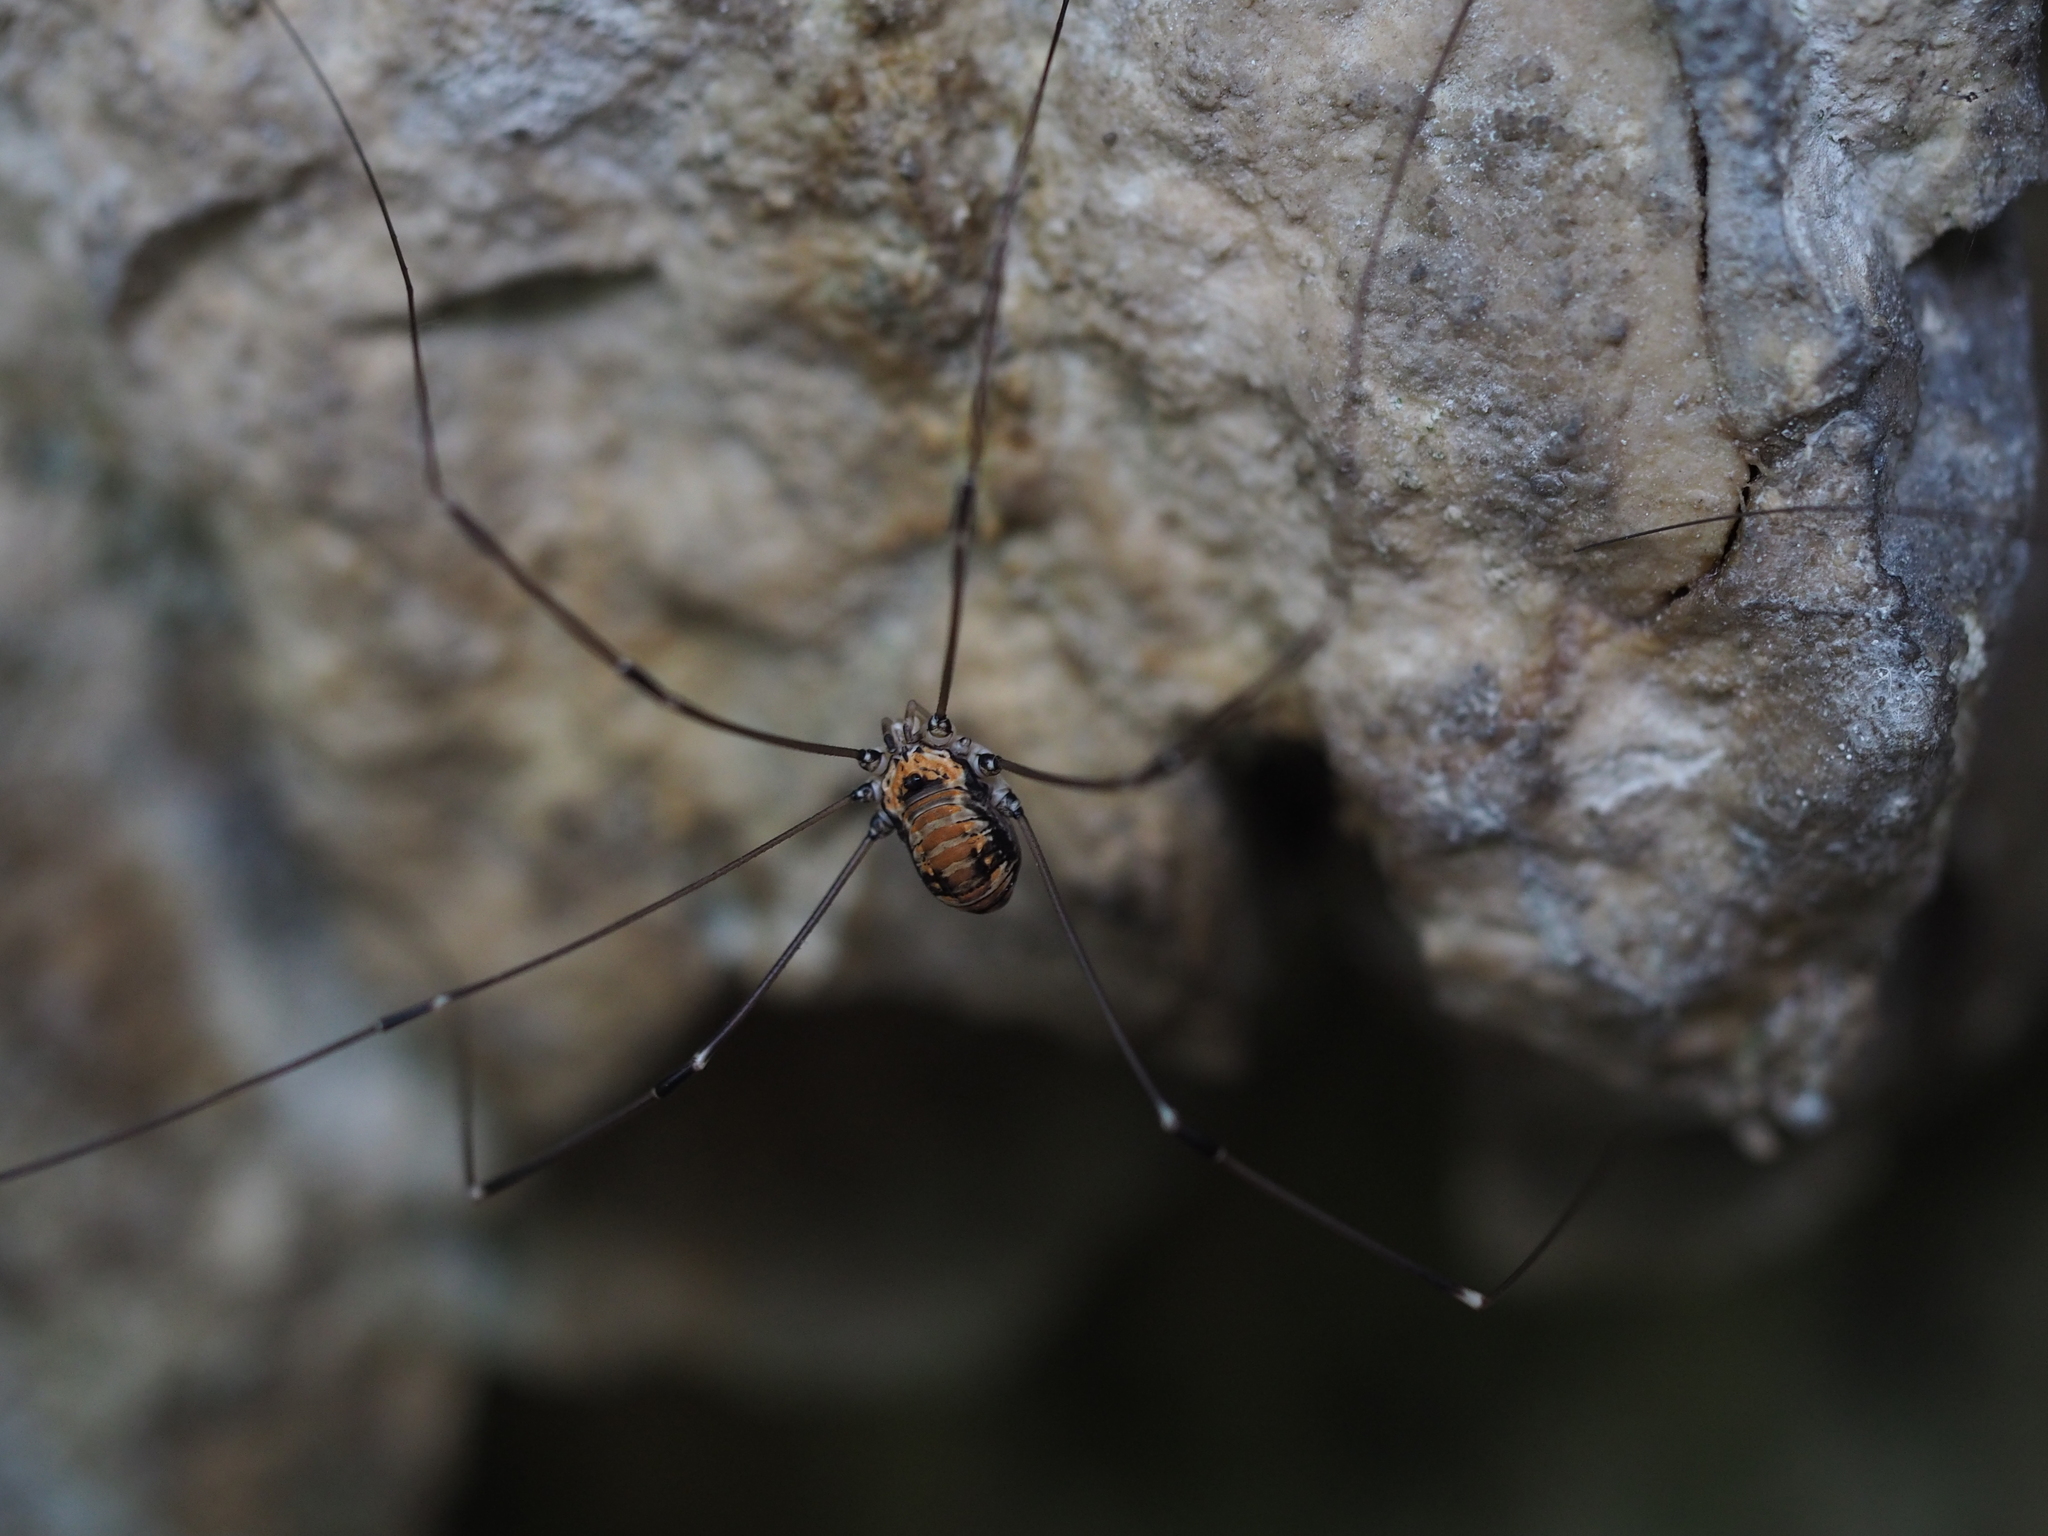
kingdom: Animalia
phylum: Arthropoda
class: Arachnida
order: Opiliones
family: Sclerosomatidae
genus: Leiobunum
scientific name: Leiobunum limbatum
